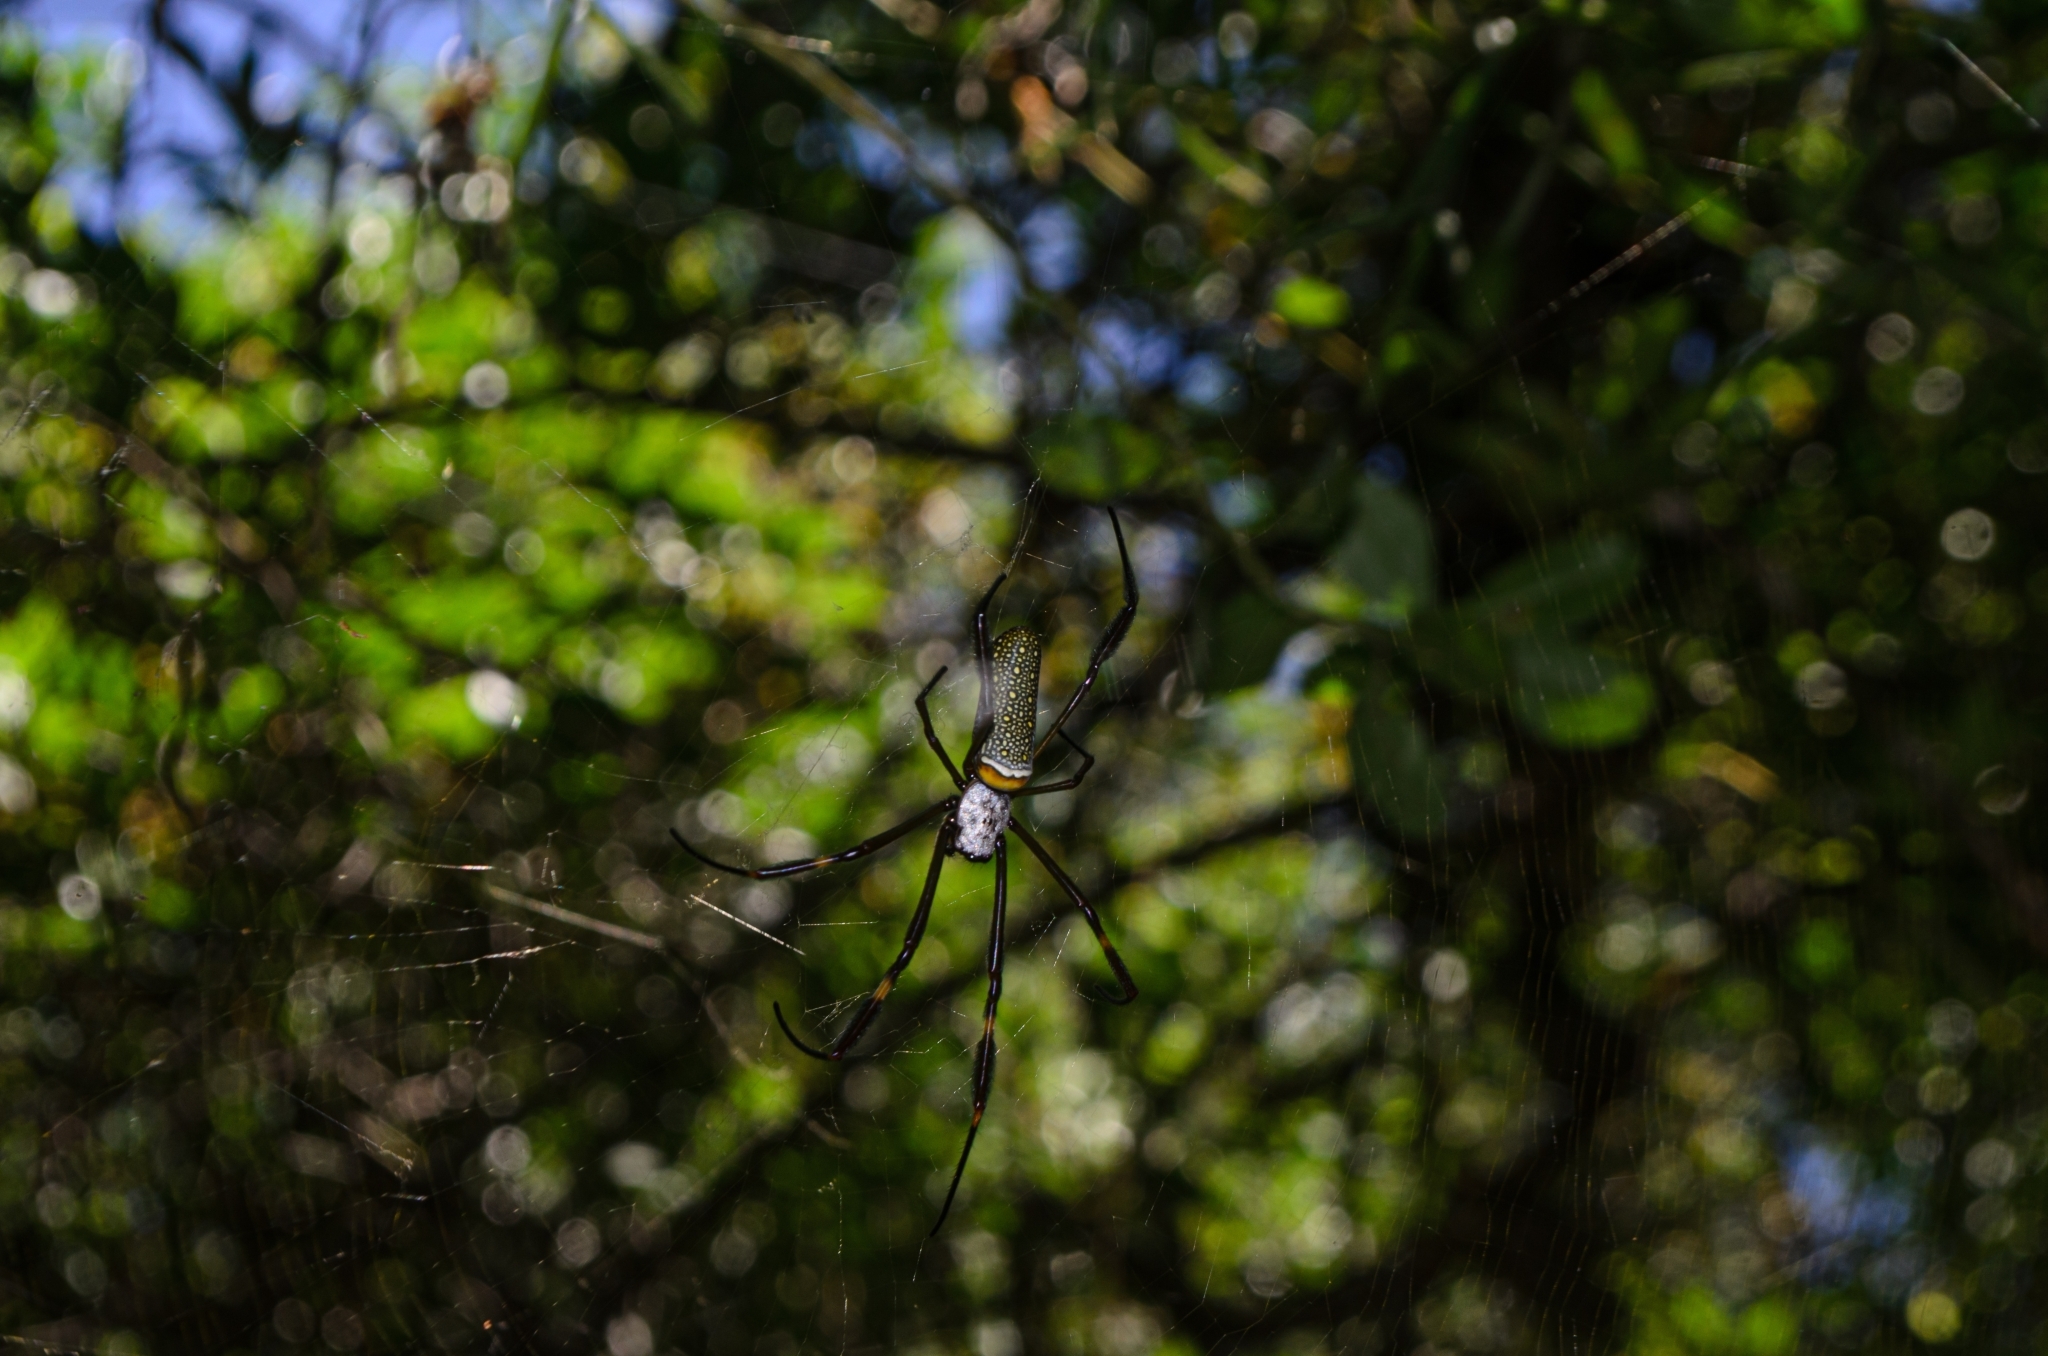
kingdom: Animalia
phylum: Arthropoda
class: Arachnida
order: Araneae
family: Araneidae
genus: Trichonephila
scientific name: Trichonephila clavipes
